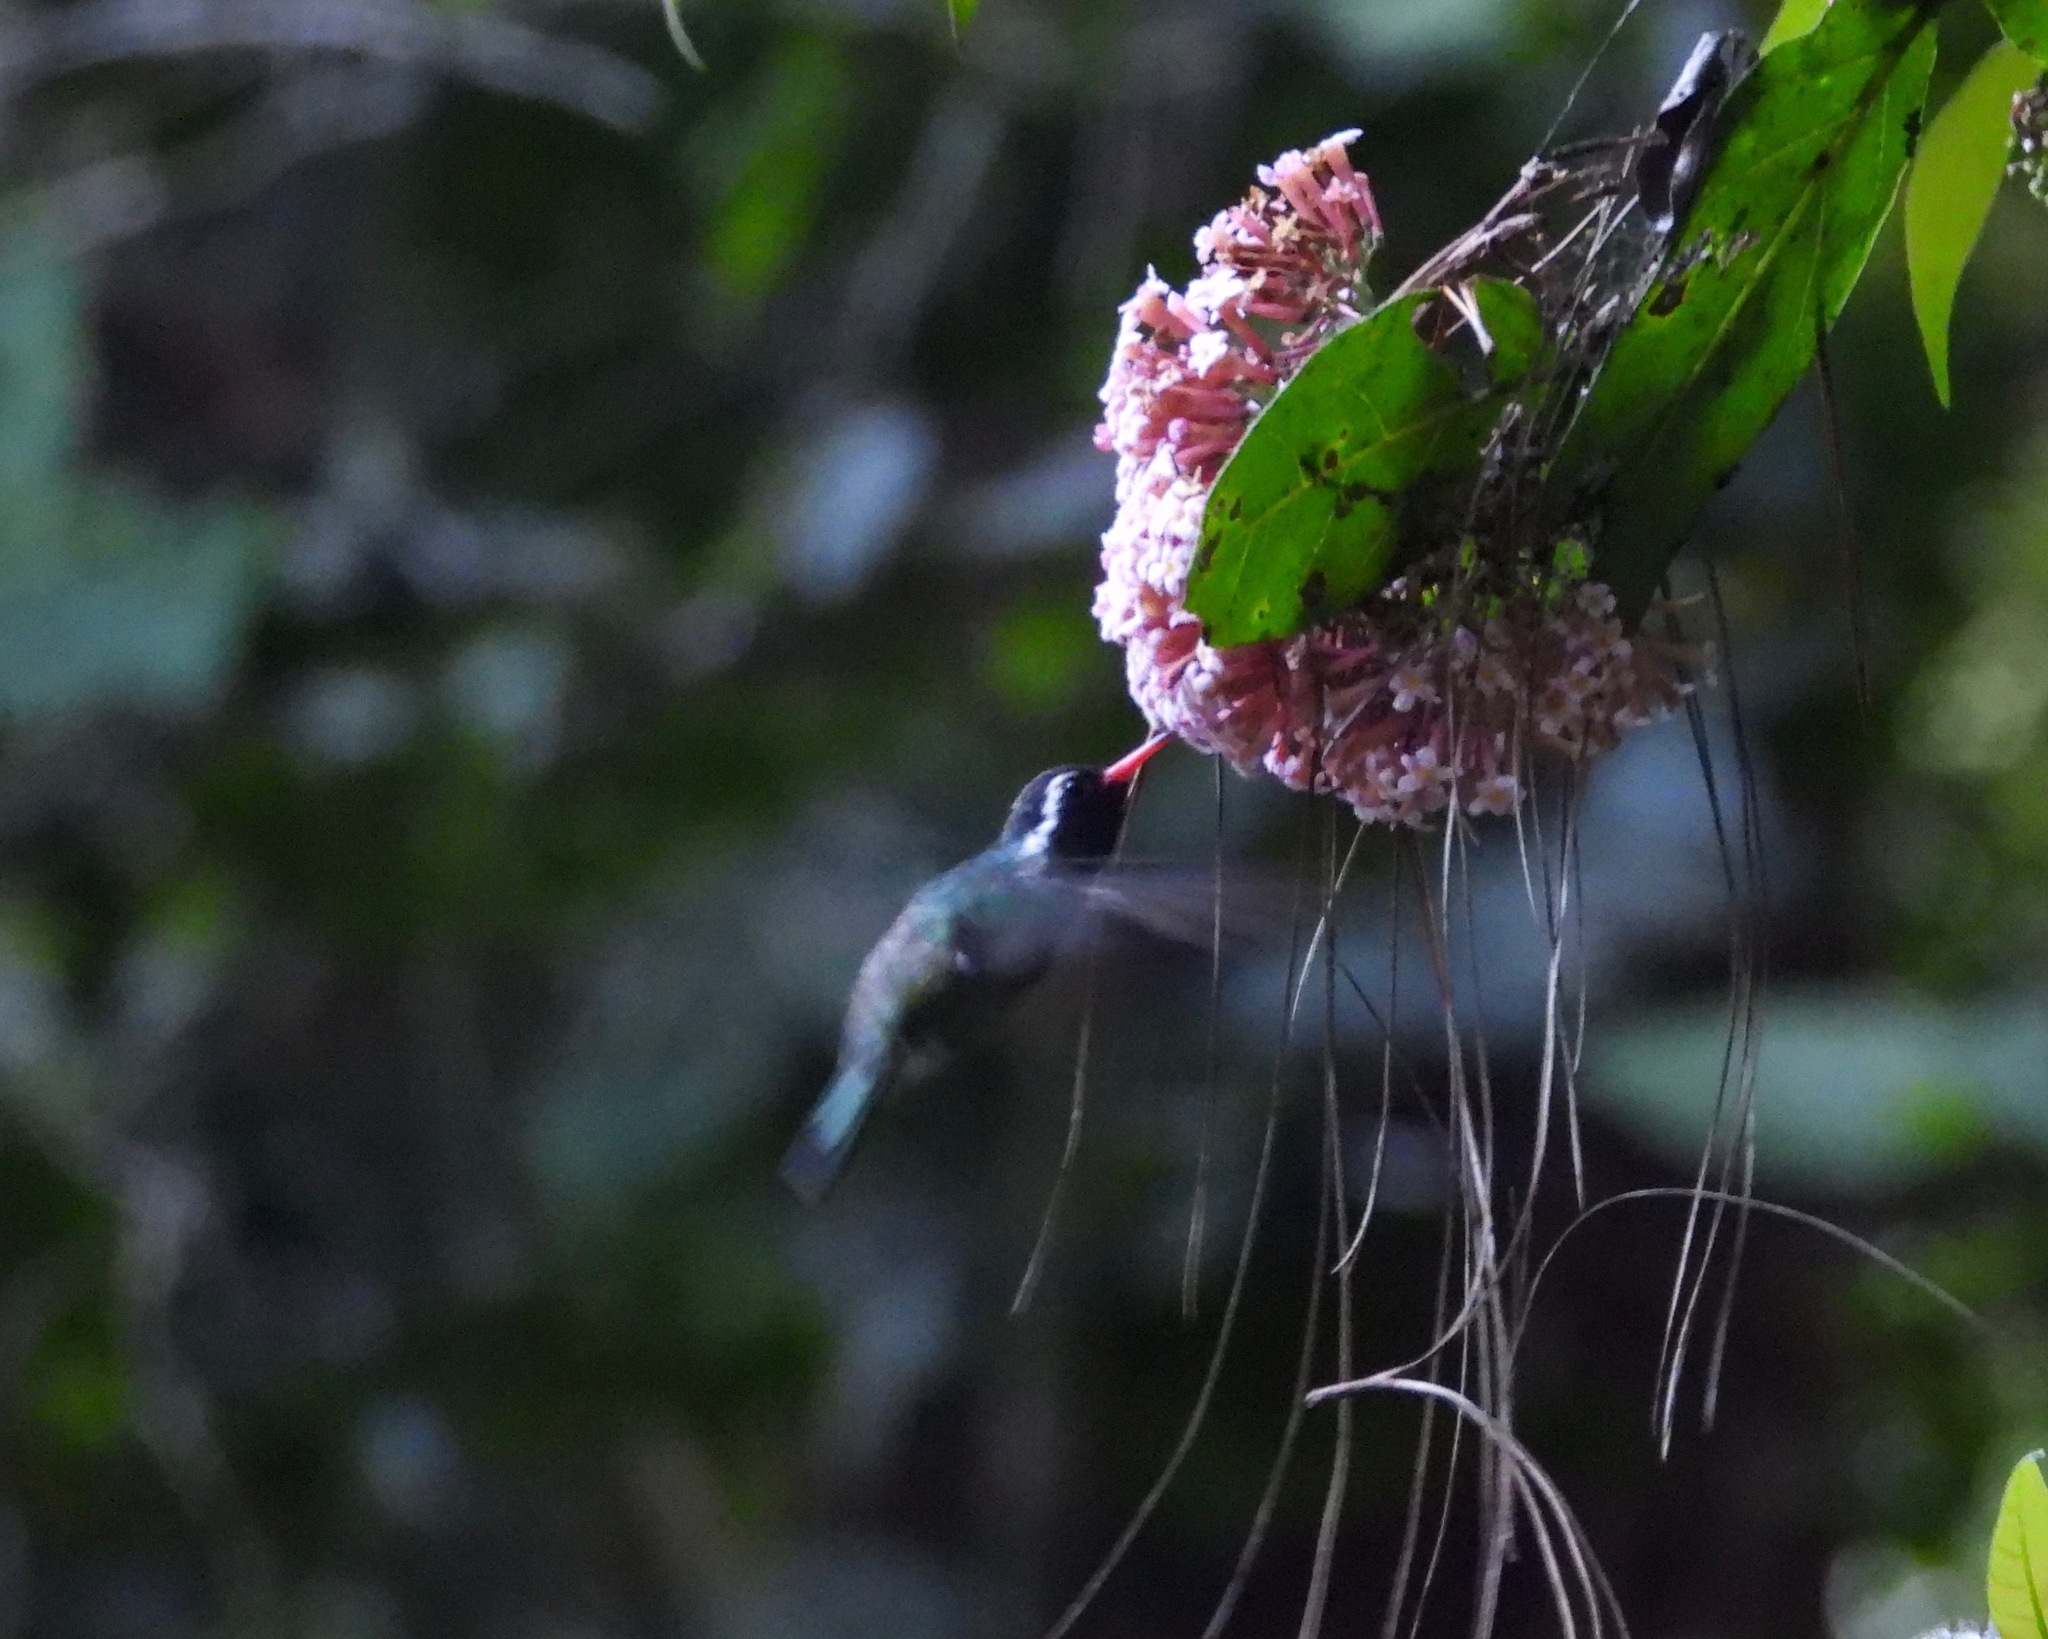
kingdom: Animalia
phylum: Chordata
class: Aves
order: Apodiformes
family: Trochilidae
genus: Basilinna
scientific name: Basilinna leucotis
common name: White-eared hummingbird
